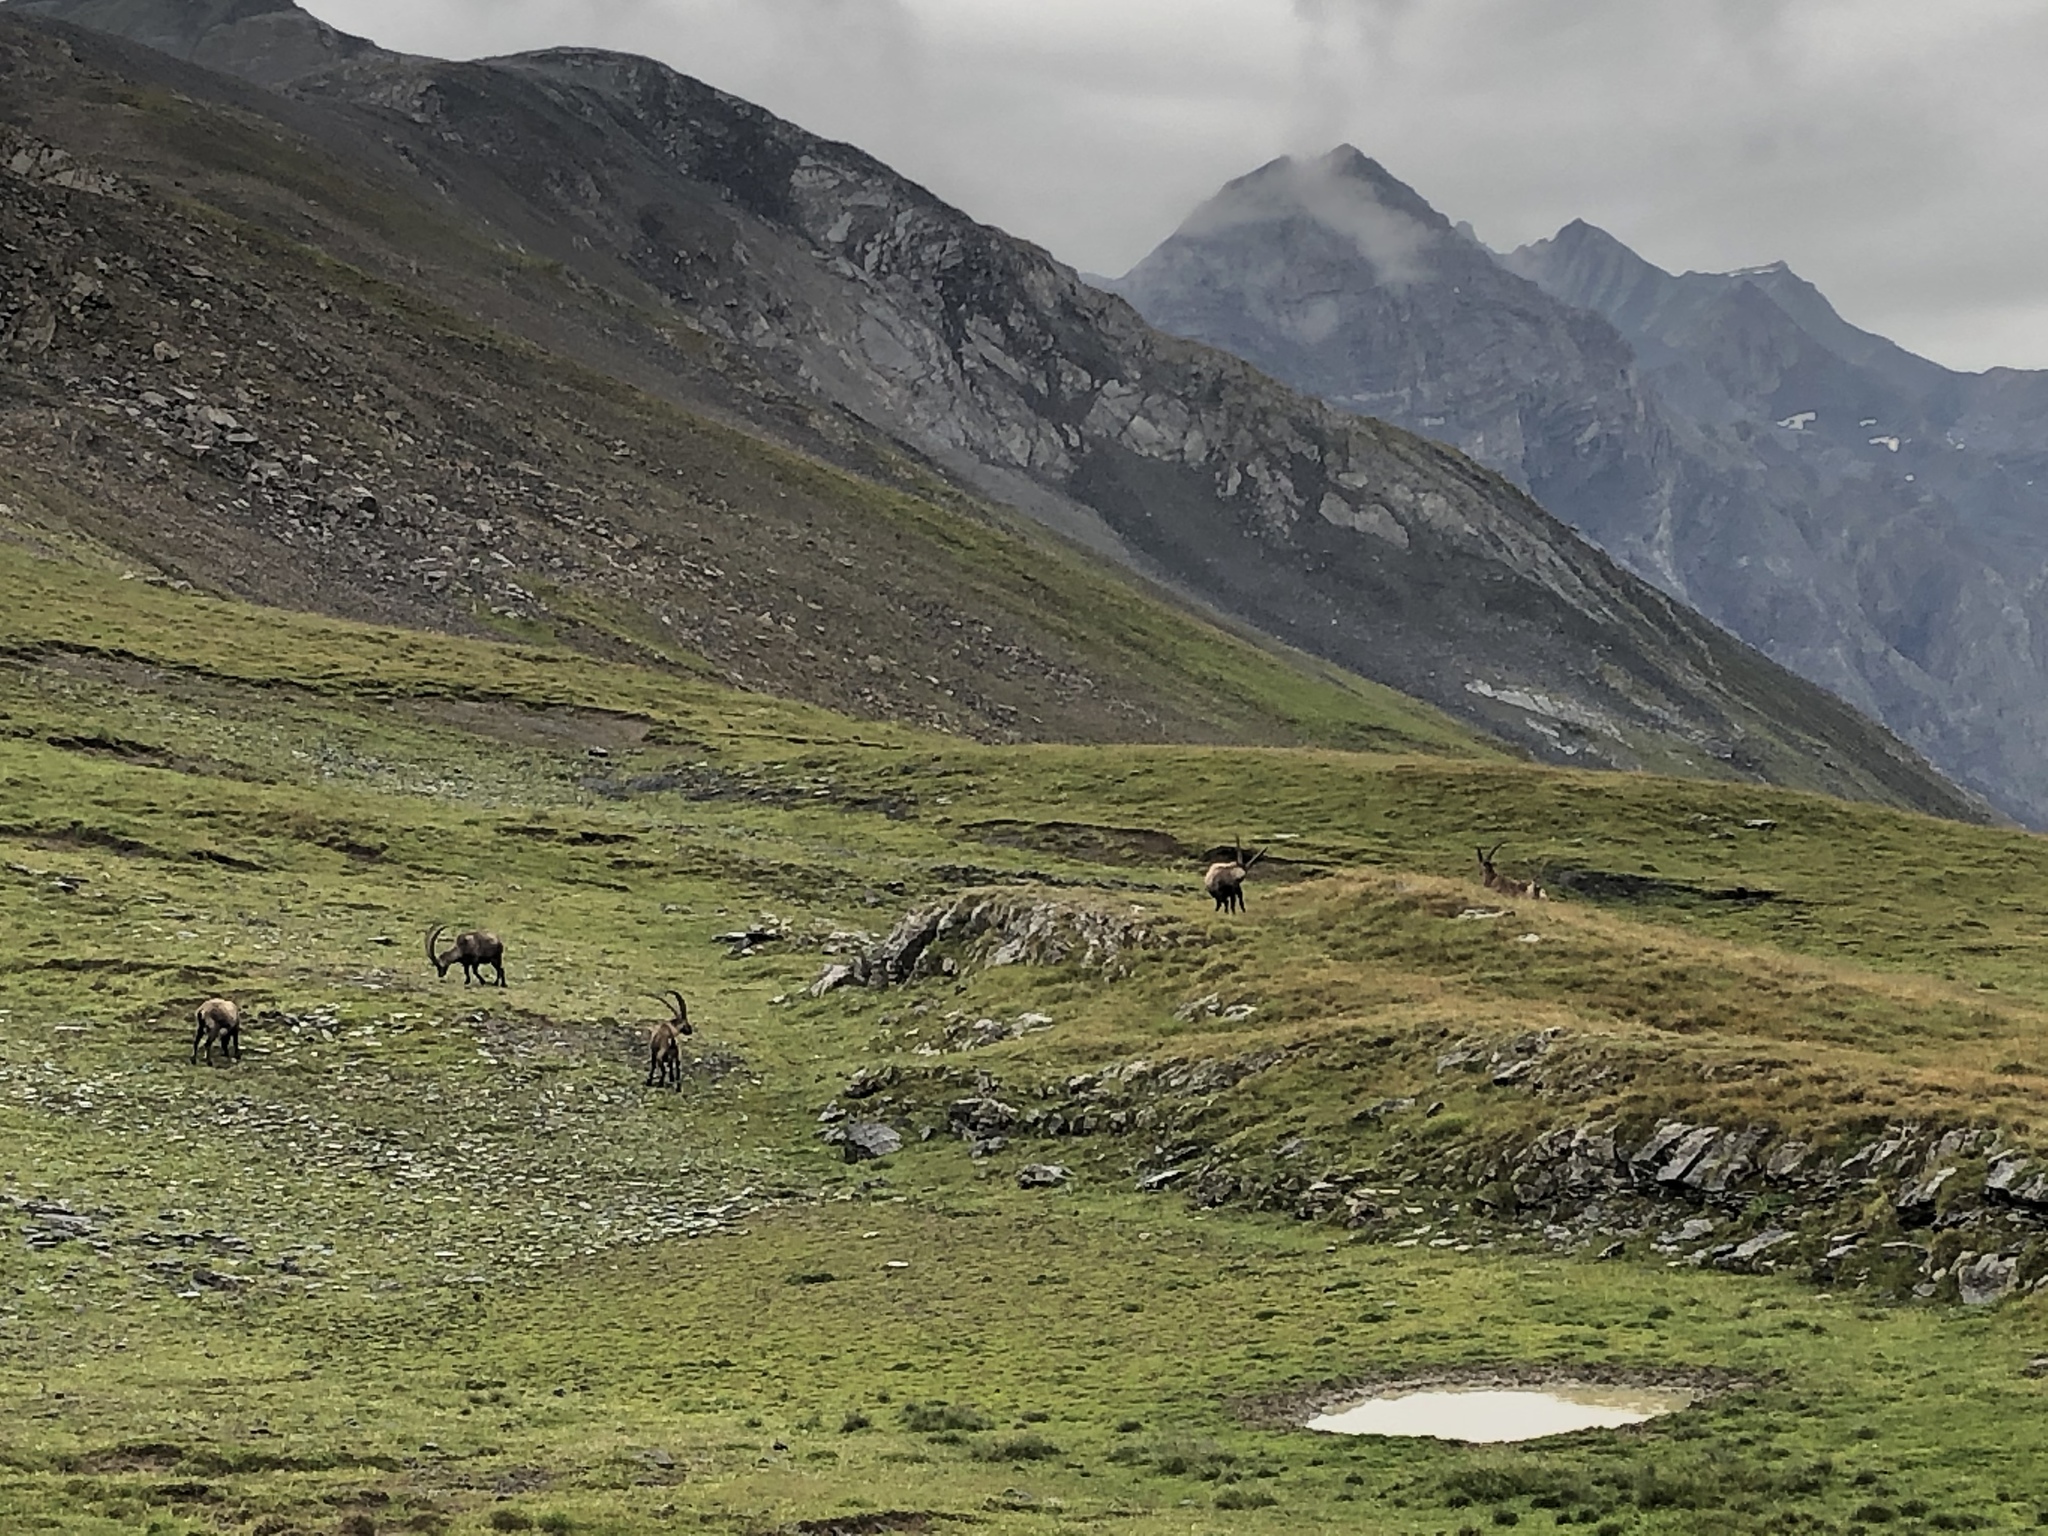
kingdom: Animalia
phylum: Chordata
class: Mammalia
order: Artiodactyla
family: Bovidae
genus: Capra
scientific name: Capra ibex
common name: Alpine ibex
